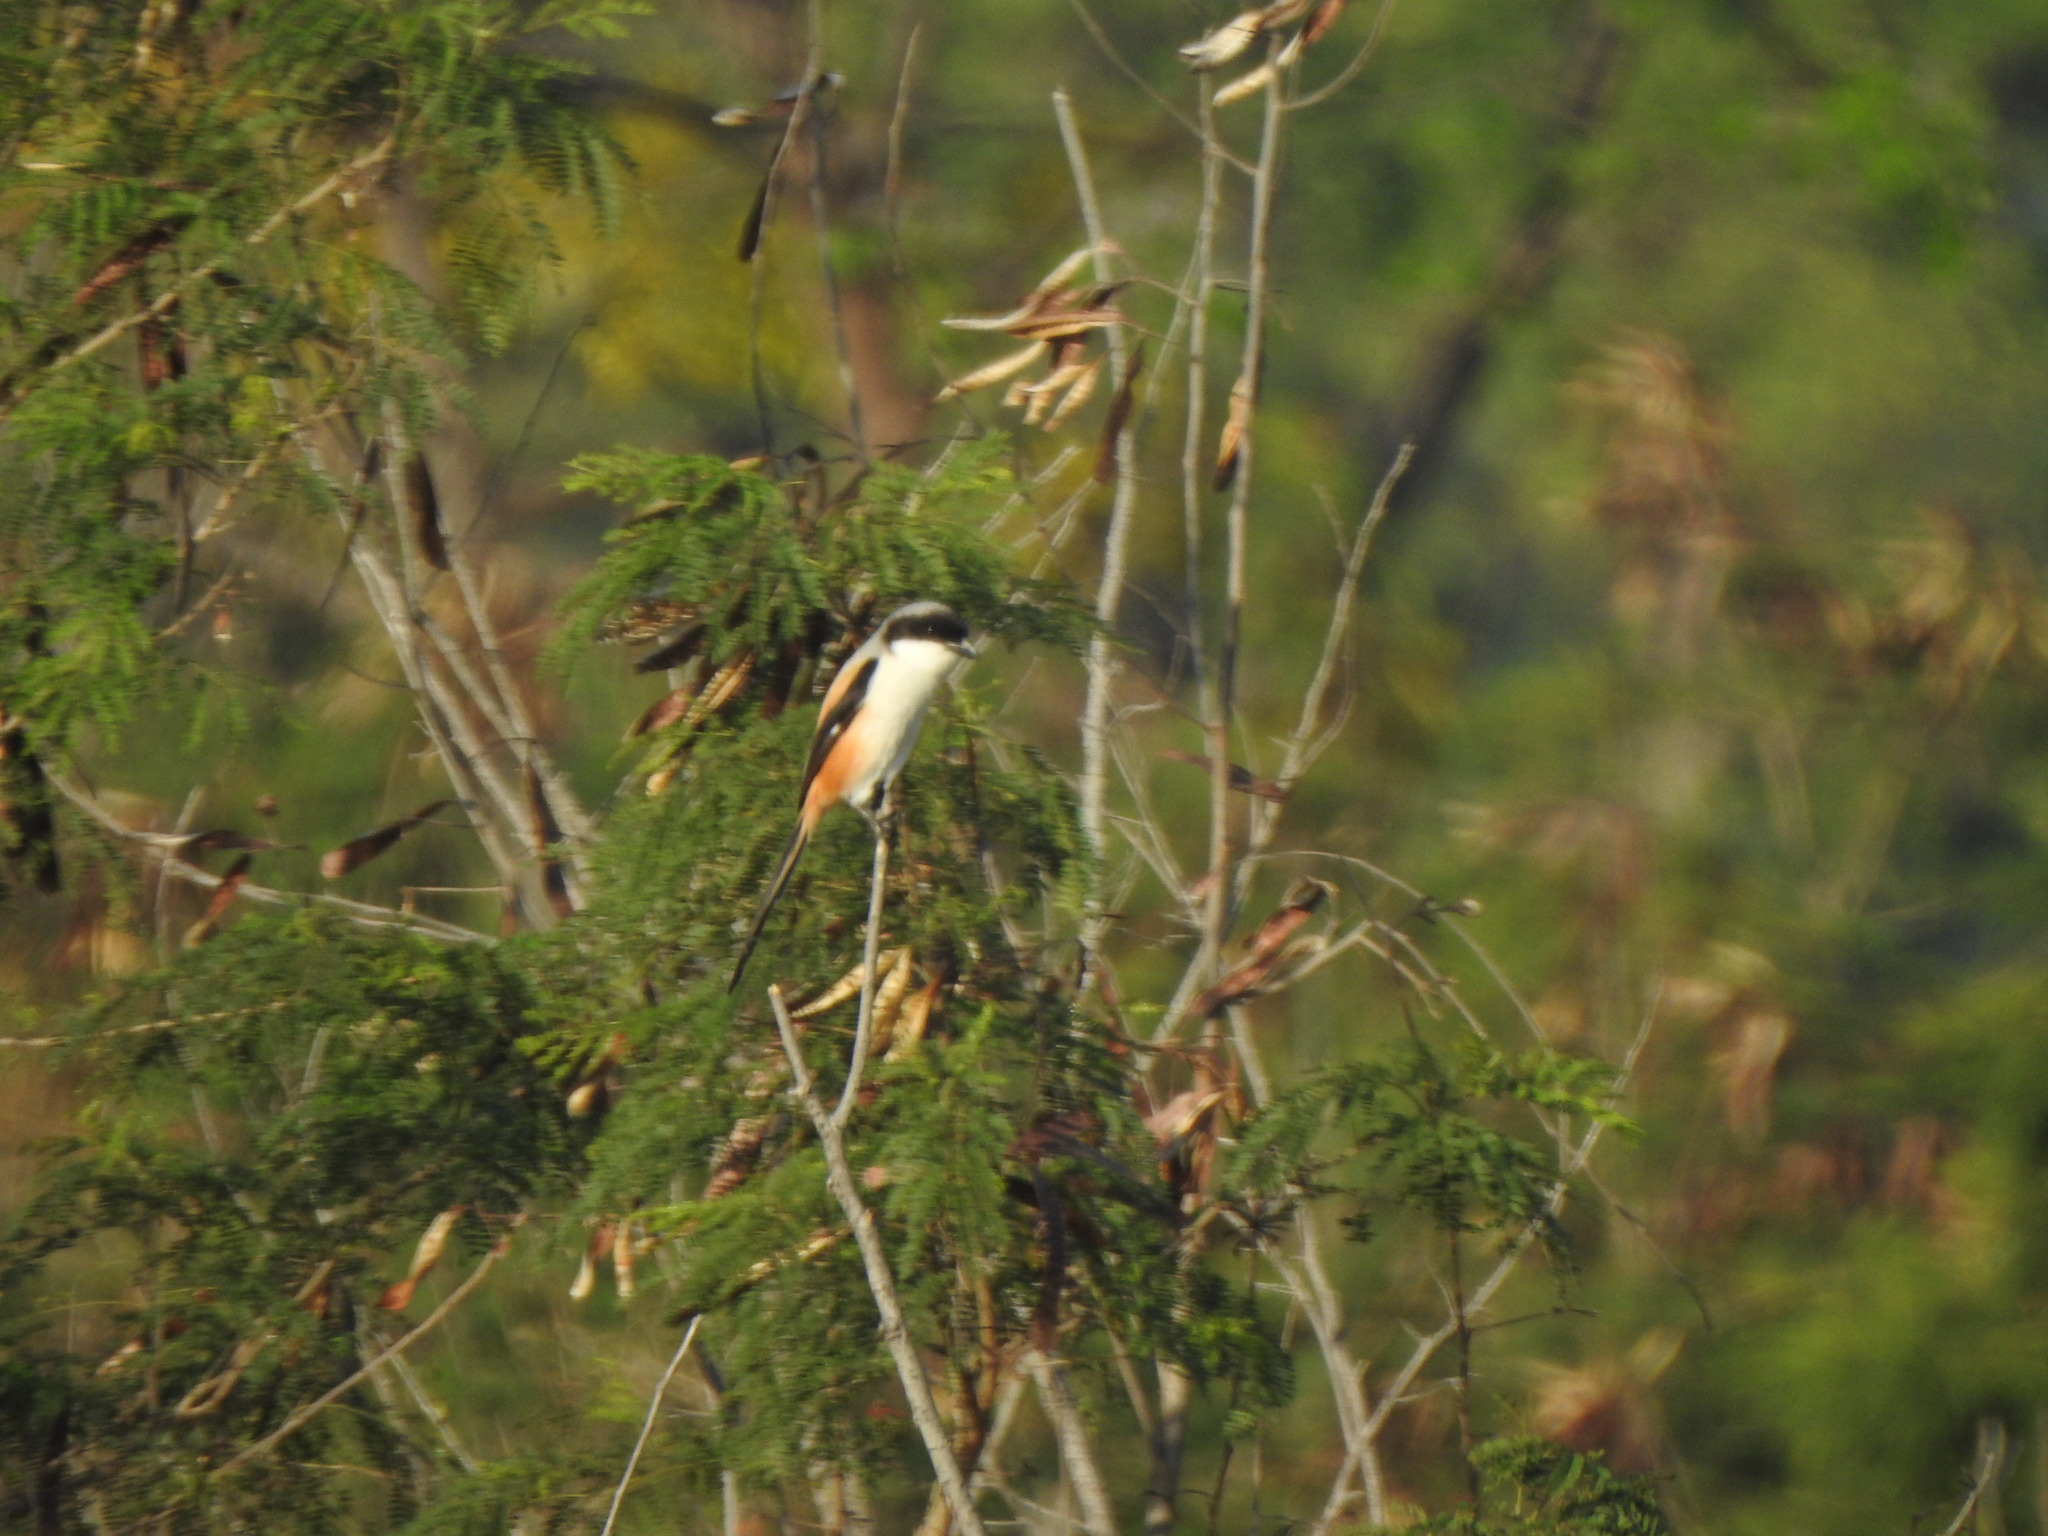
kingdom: Animalia
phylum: Chordata
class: Aves
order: Passeriformes
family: Laniidae
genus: Lanius
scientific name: Lanius schach
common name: Long-tailed shrike
